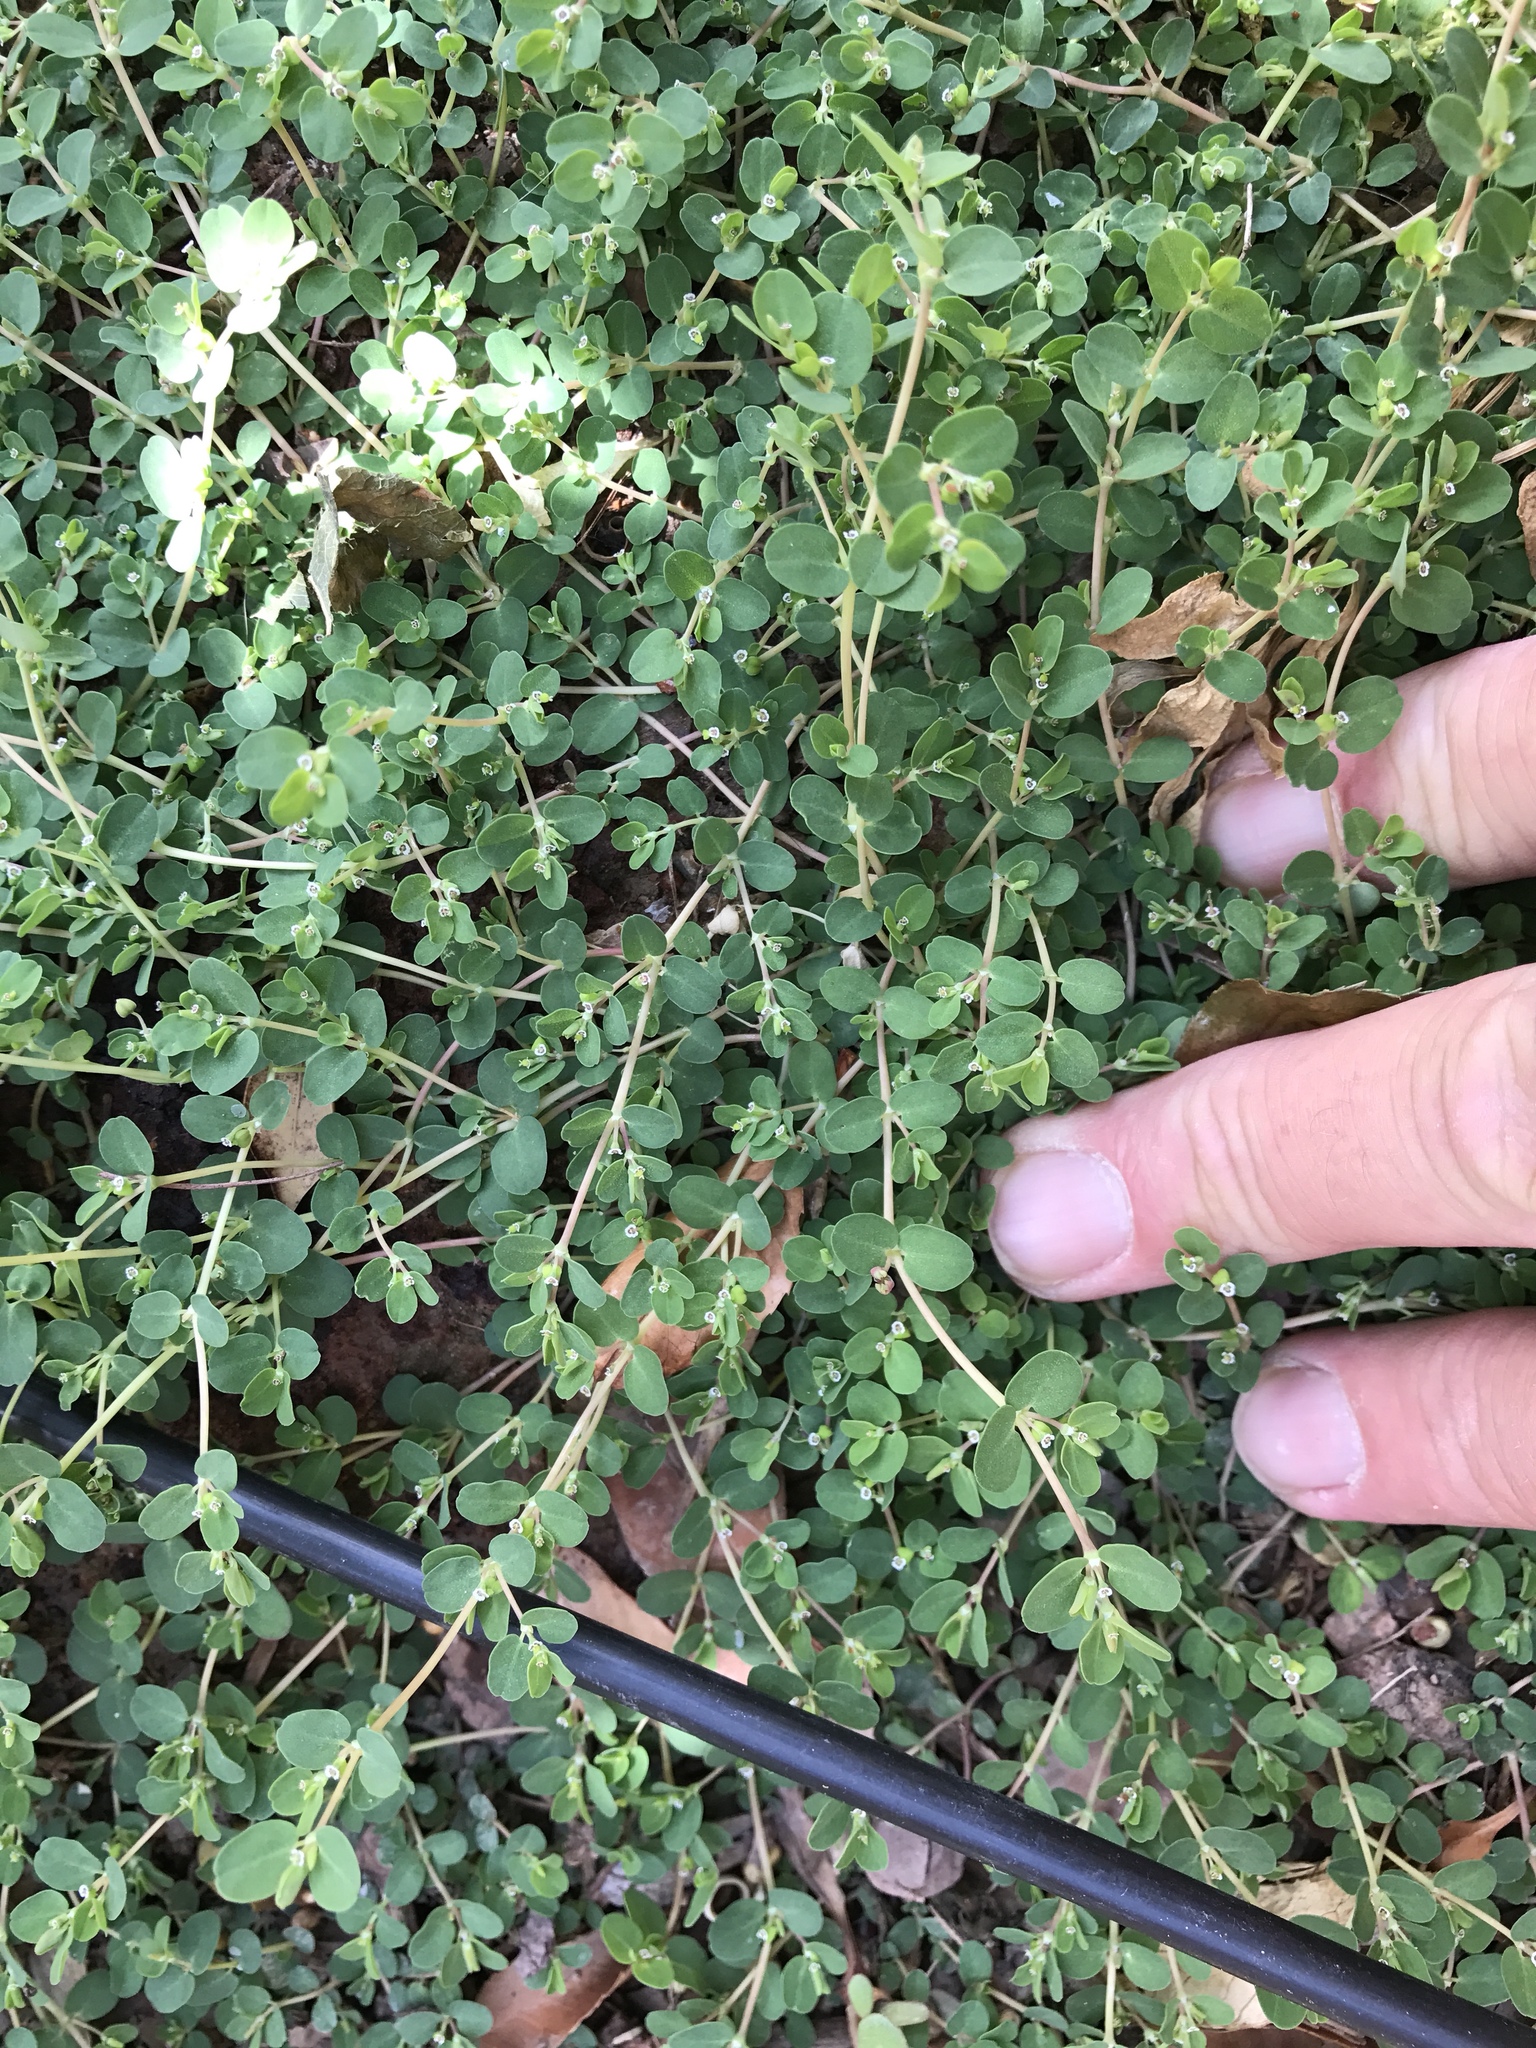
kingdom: Plantae
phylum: Tracheophyta
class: Magnoliopsida
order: Malpighiales
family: Euphorbiaceae
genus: Euphorbia
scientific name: Euphorbia serpens
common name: Matted sandmat
